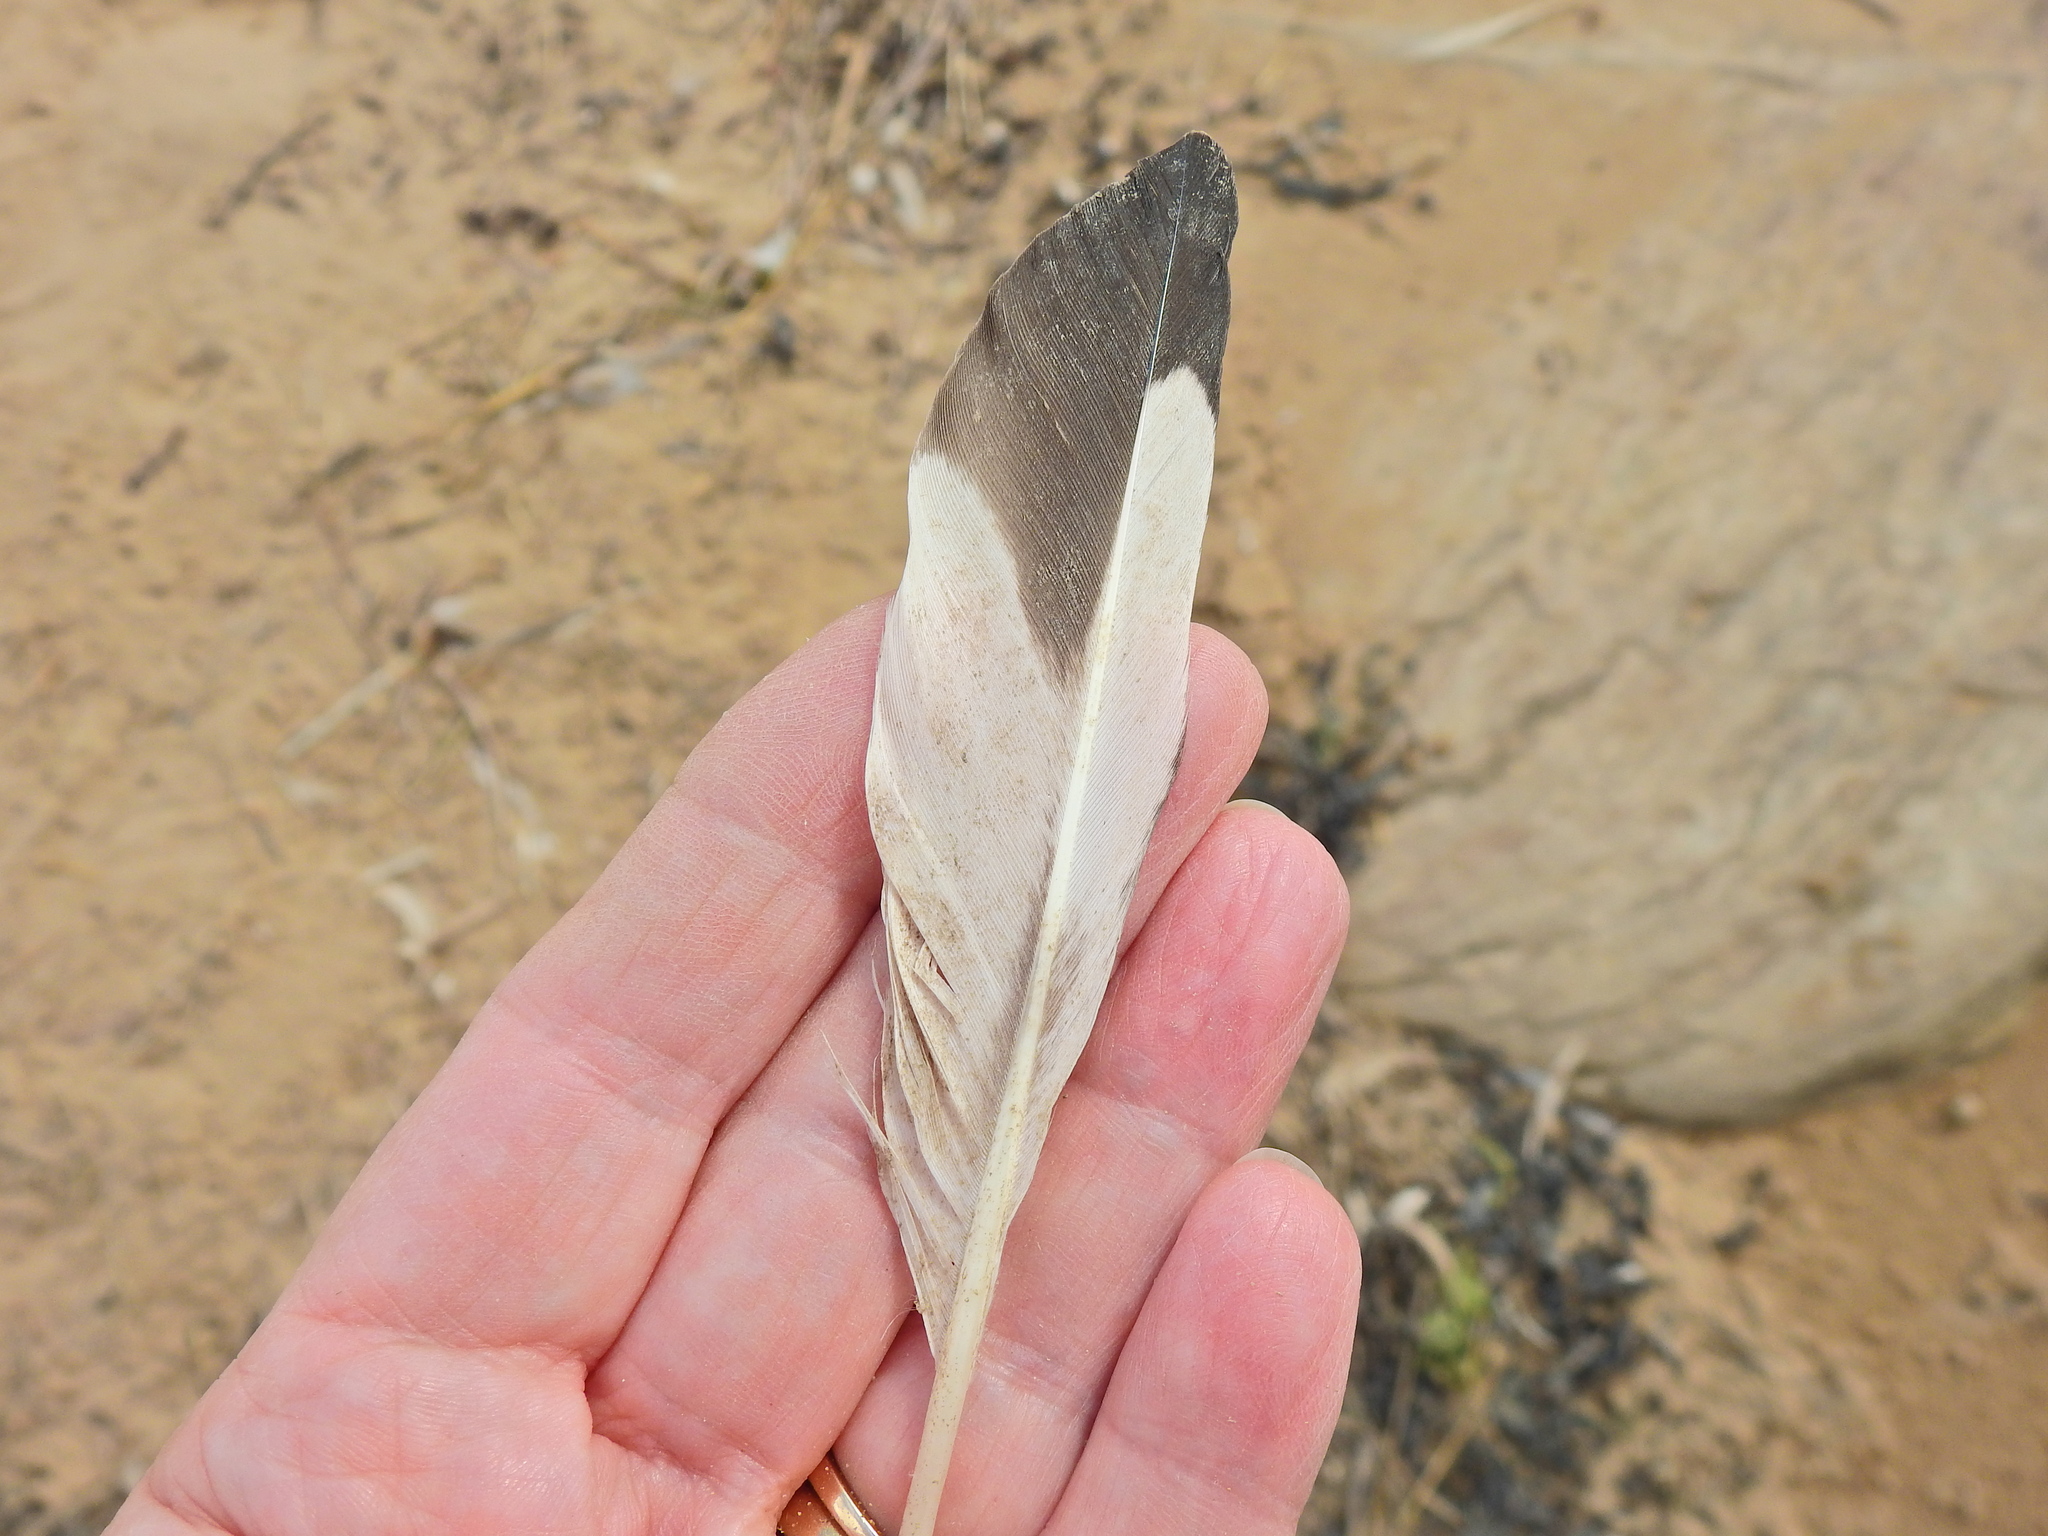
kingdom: Animalia
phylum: Chordata
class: Aves
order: Charadriiformes
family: Haematopodidae
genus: Haematopus
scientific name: Haematopus ostralegus
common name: Eurasian oystercatcher
